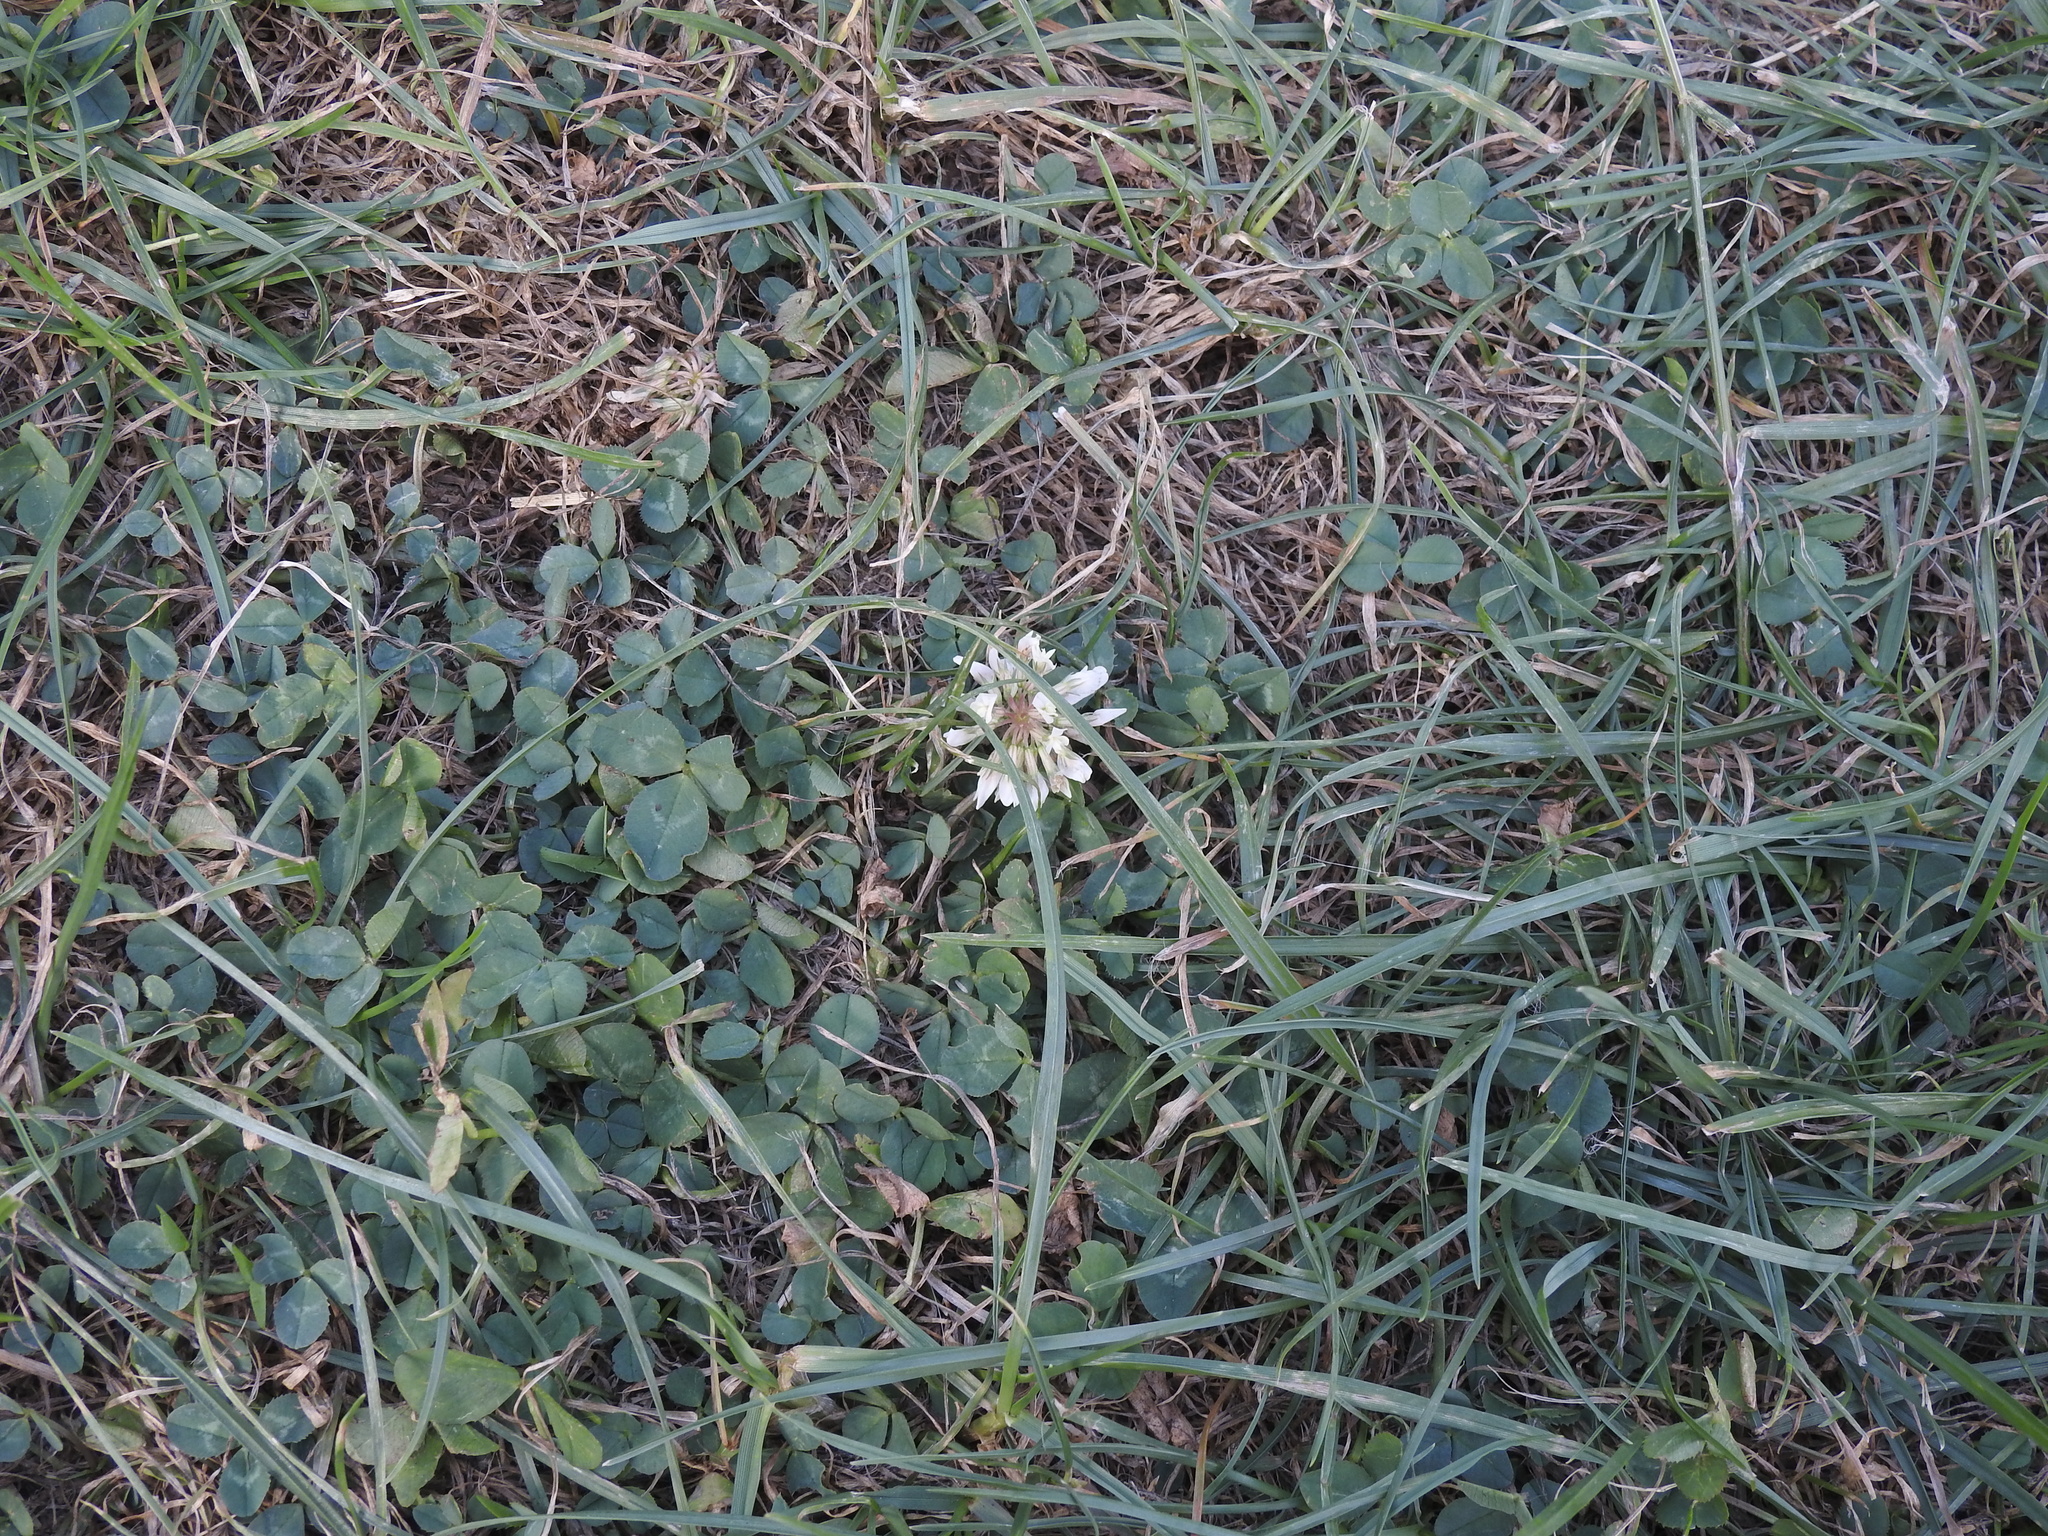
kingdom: Plantae
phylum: Tracheophyta
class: Magnoliopsida
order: Fabales
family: Fabaceae
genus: Trifolium
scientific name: Trifolium repens
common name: White clover
